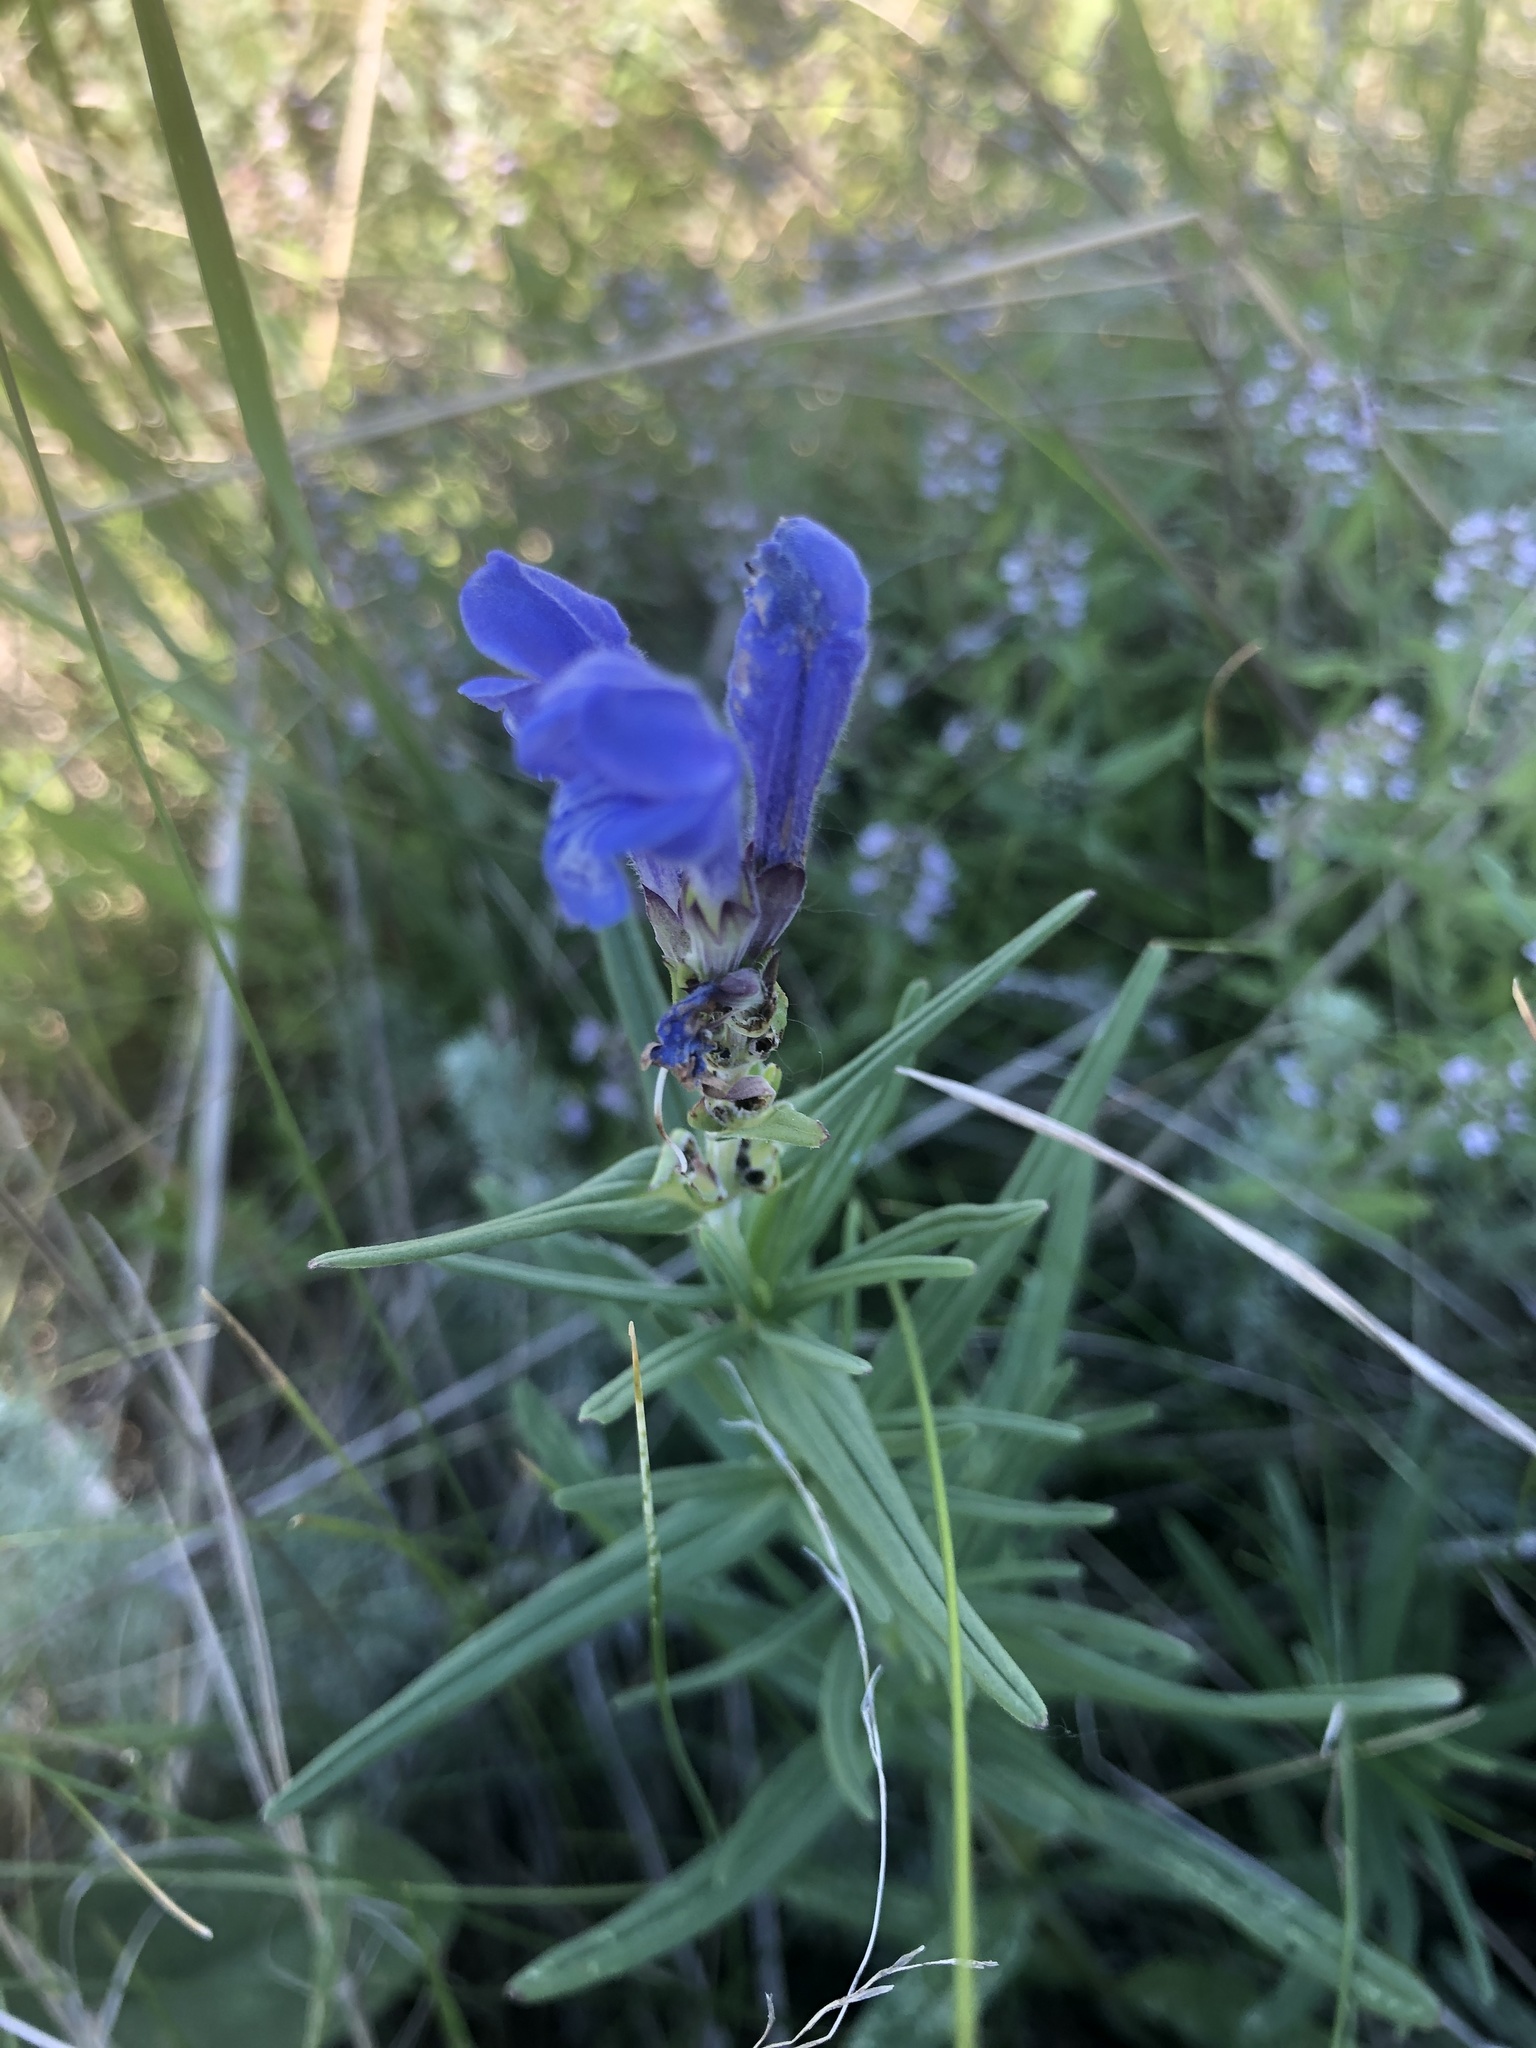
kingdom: Plantae
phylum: Tracheophyta
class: Magnoliopsida
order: Lamiales
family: Lamiaceae
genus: Dracocephalum
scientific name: Dracocephalum ruyschiana
